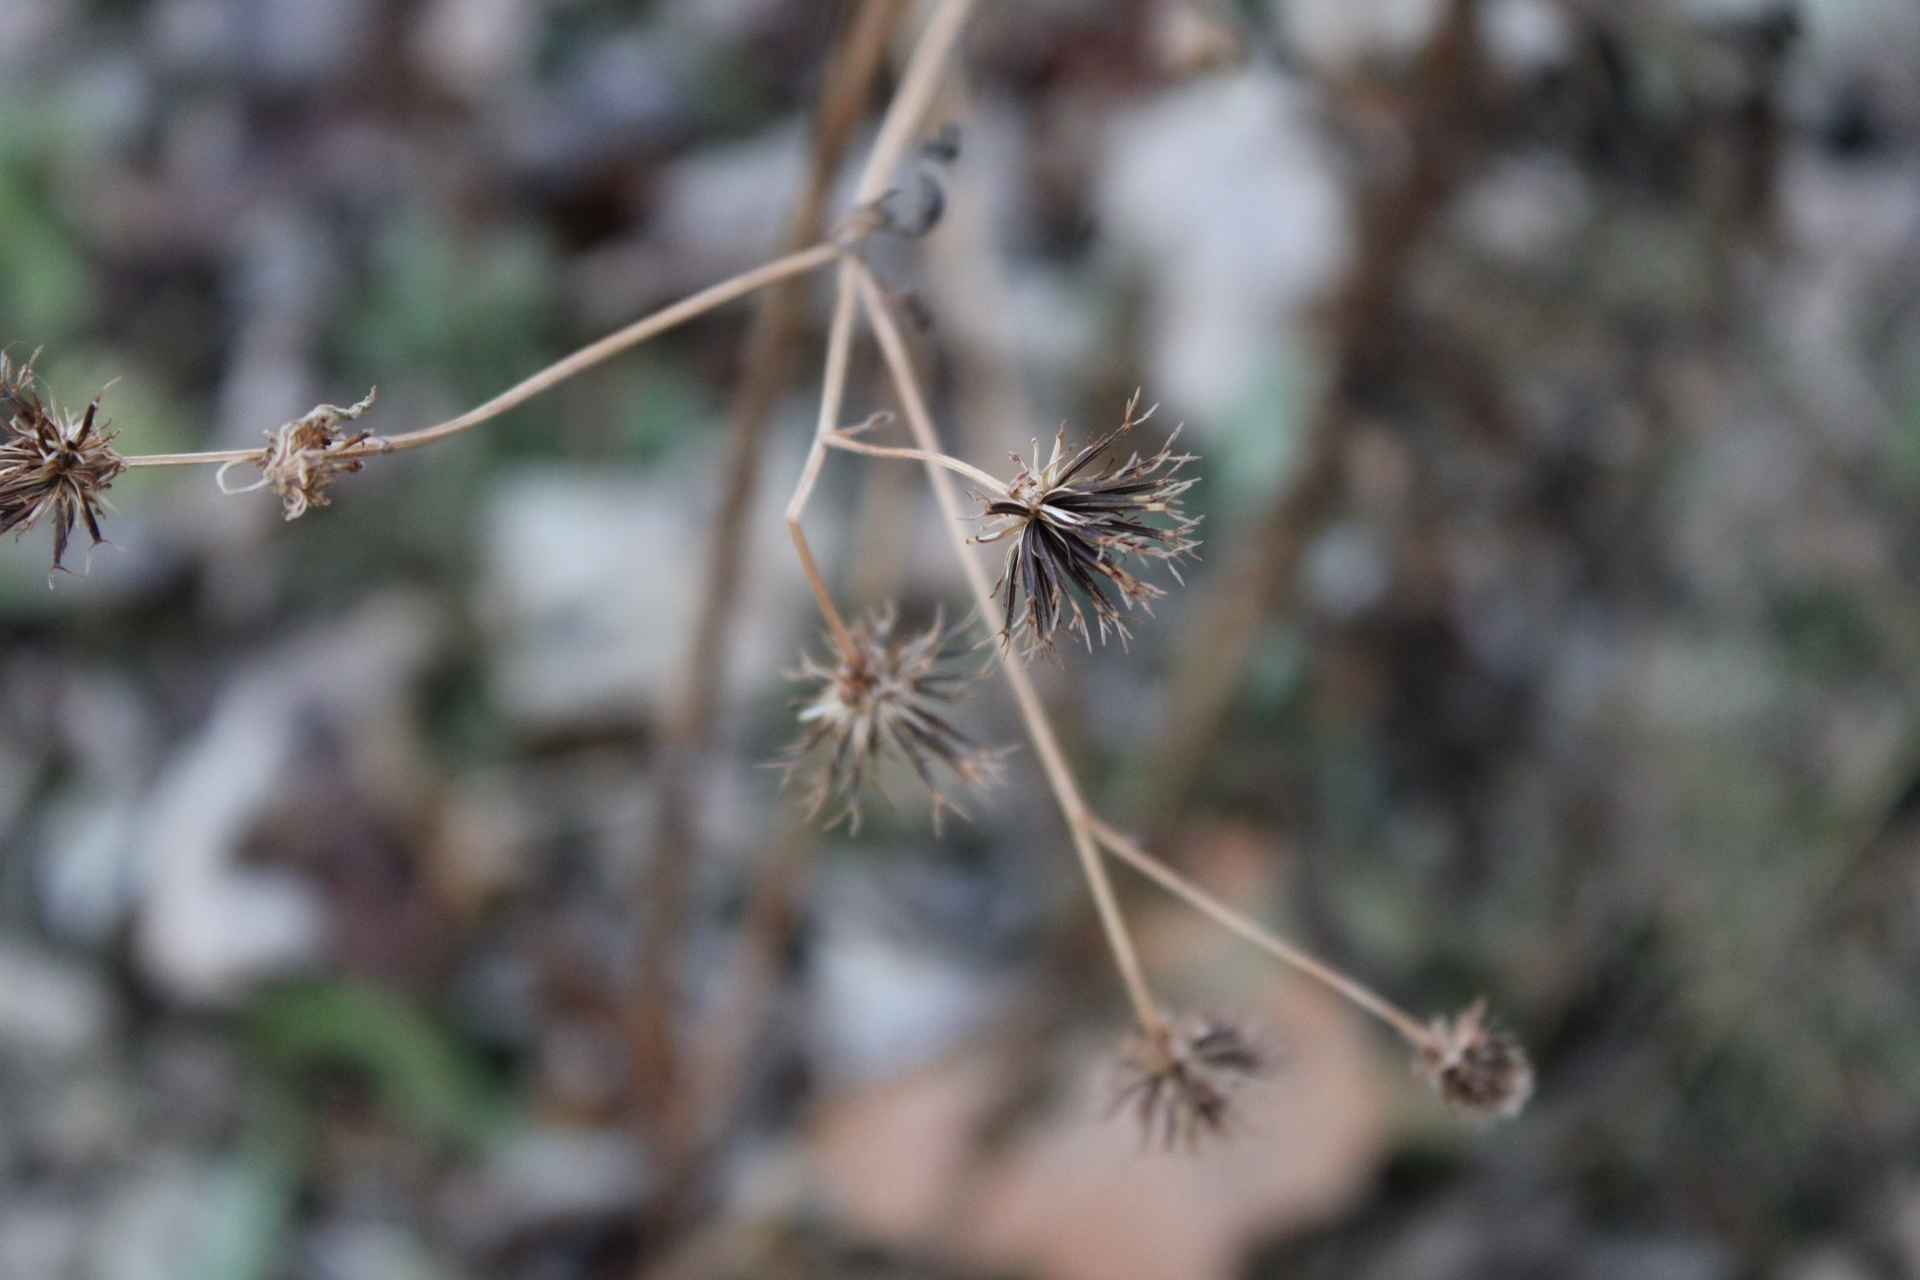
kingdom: Plantae
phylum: Tracheophyta
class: Magnoliopsida
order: Asterales
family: Asteraceae
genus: Bidens
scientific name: Bidens alba
